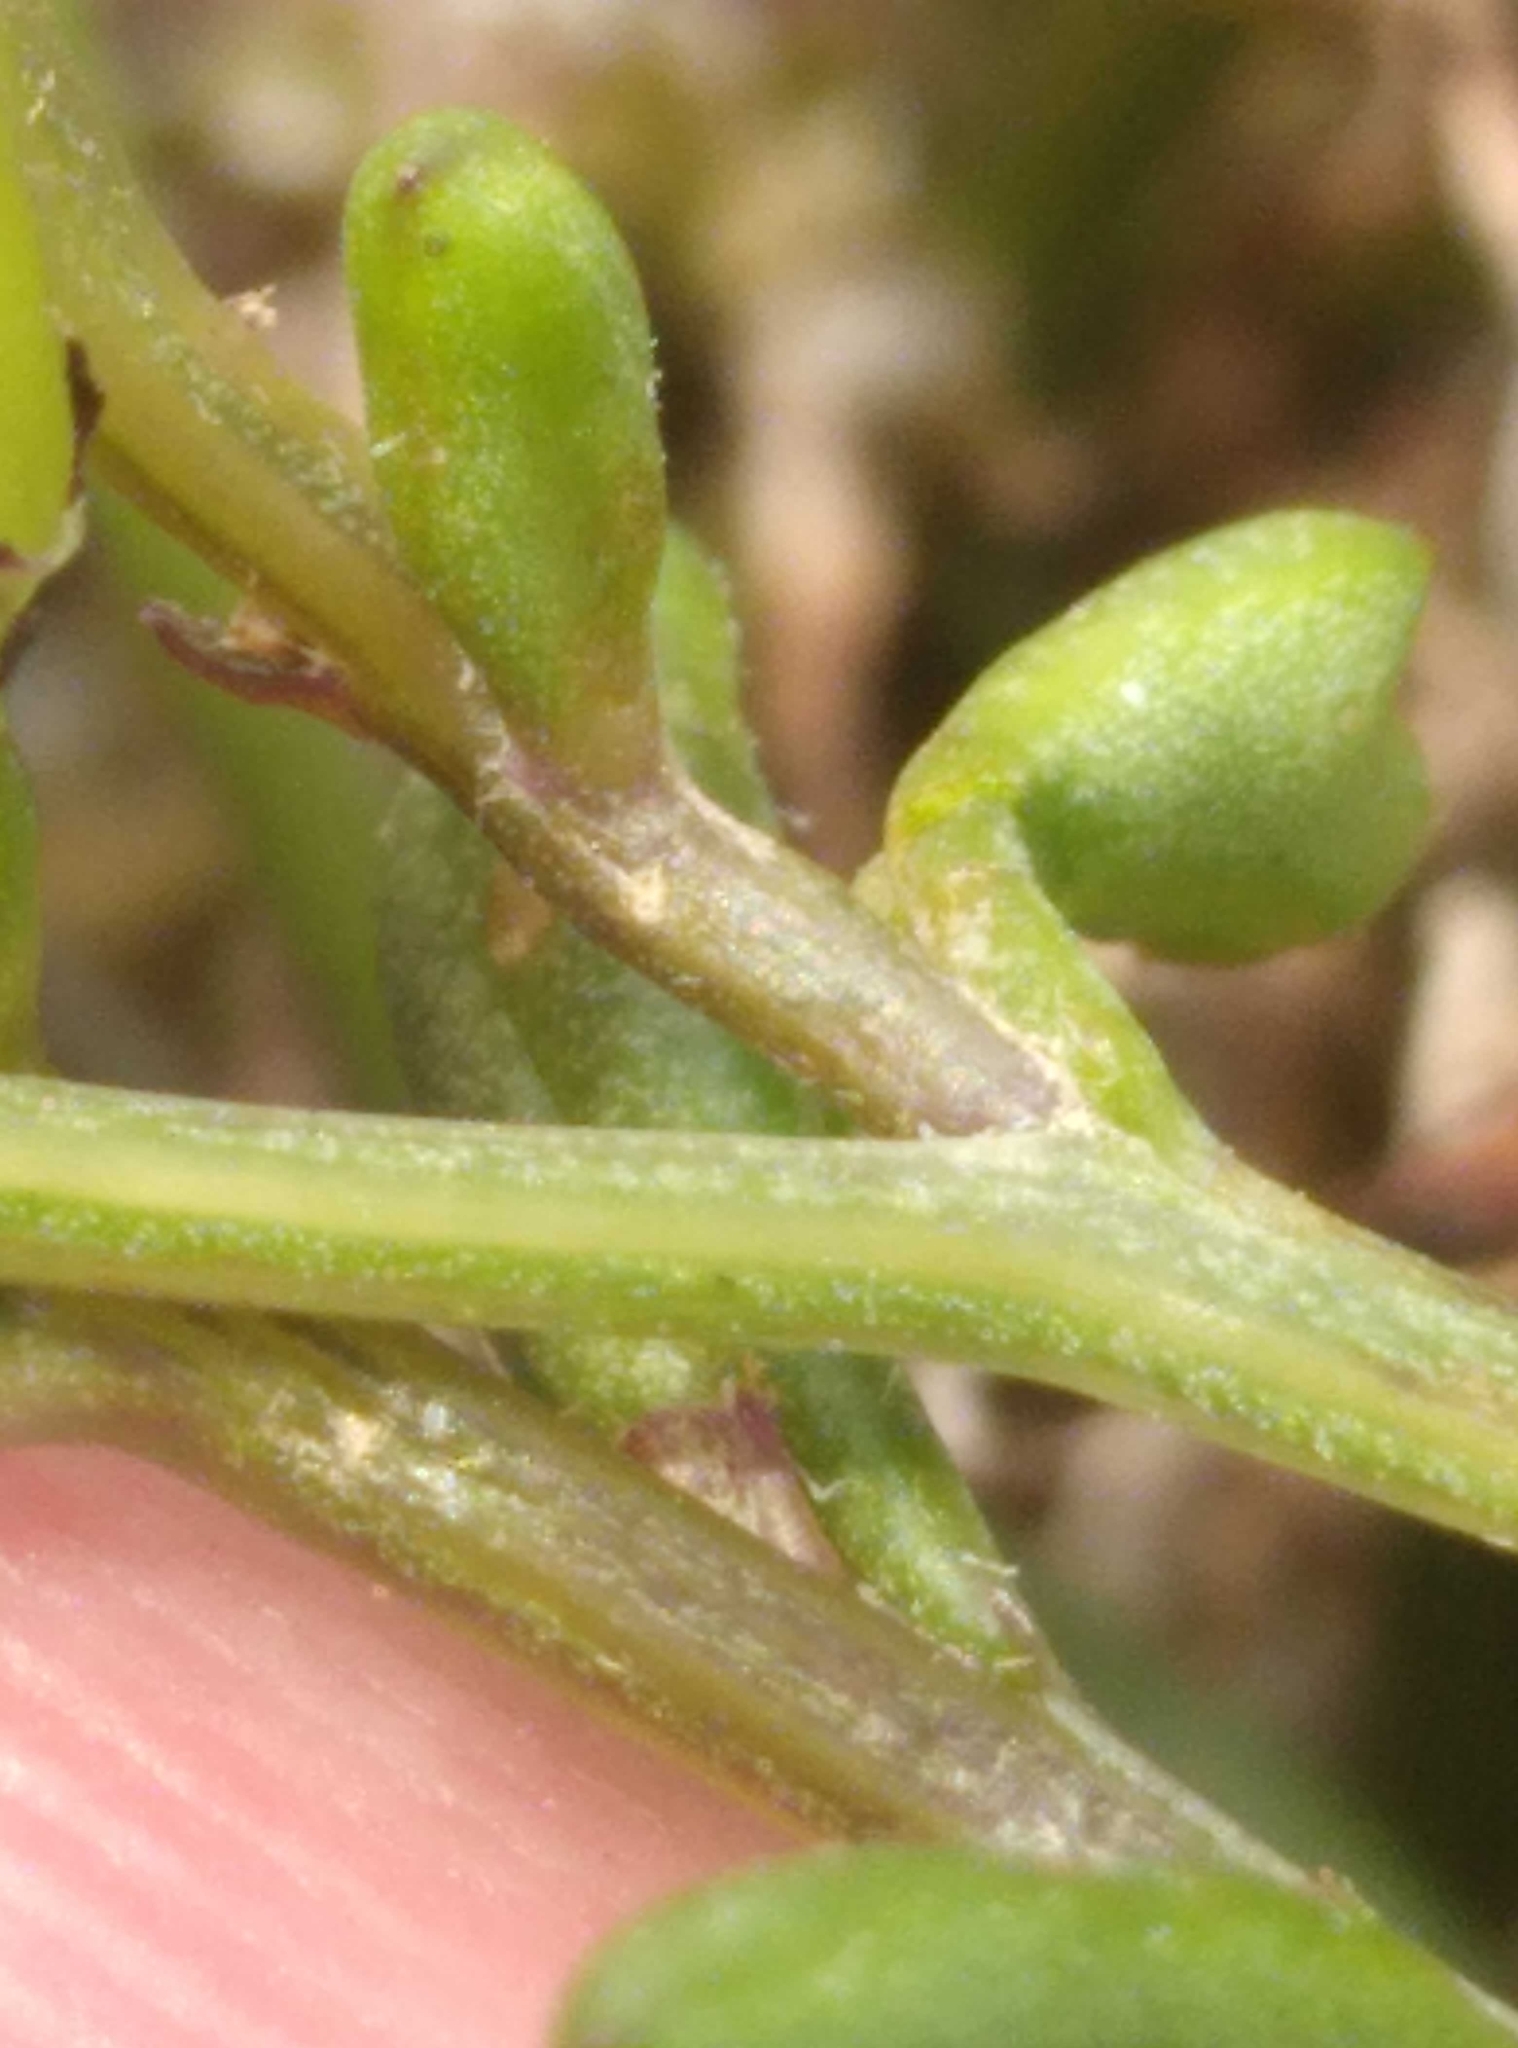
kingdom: Plantae
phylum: Tracheophyta
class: Magnoliopsida
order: Asterales
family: Asteraceae
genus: Senecio
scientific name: Senecio lautus
